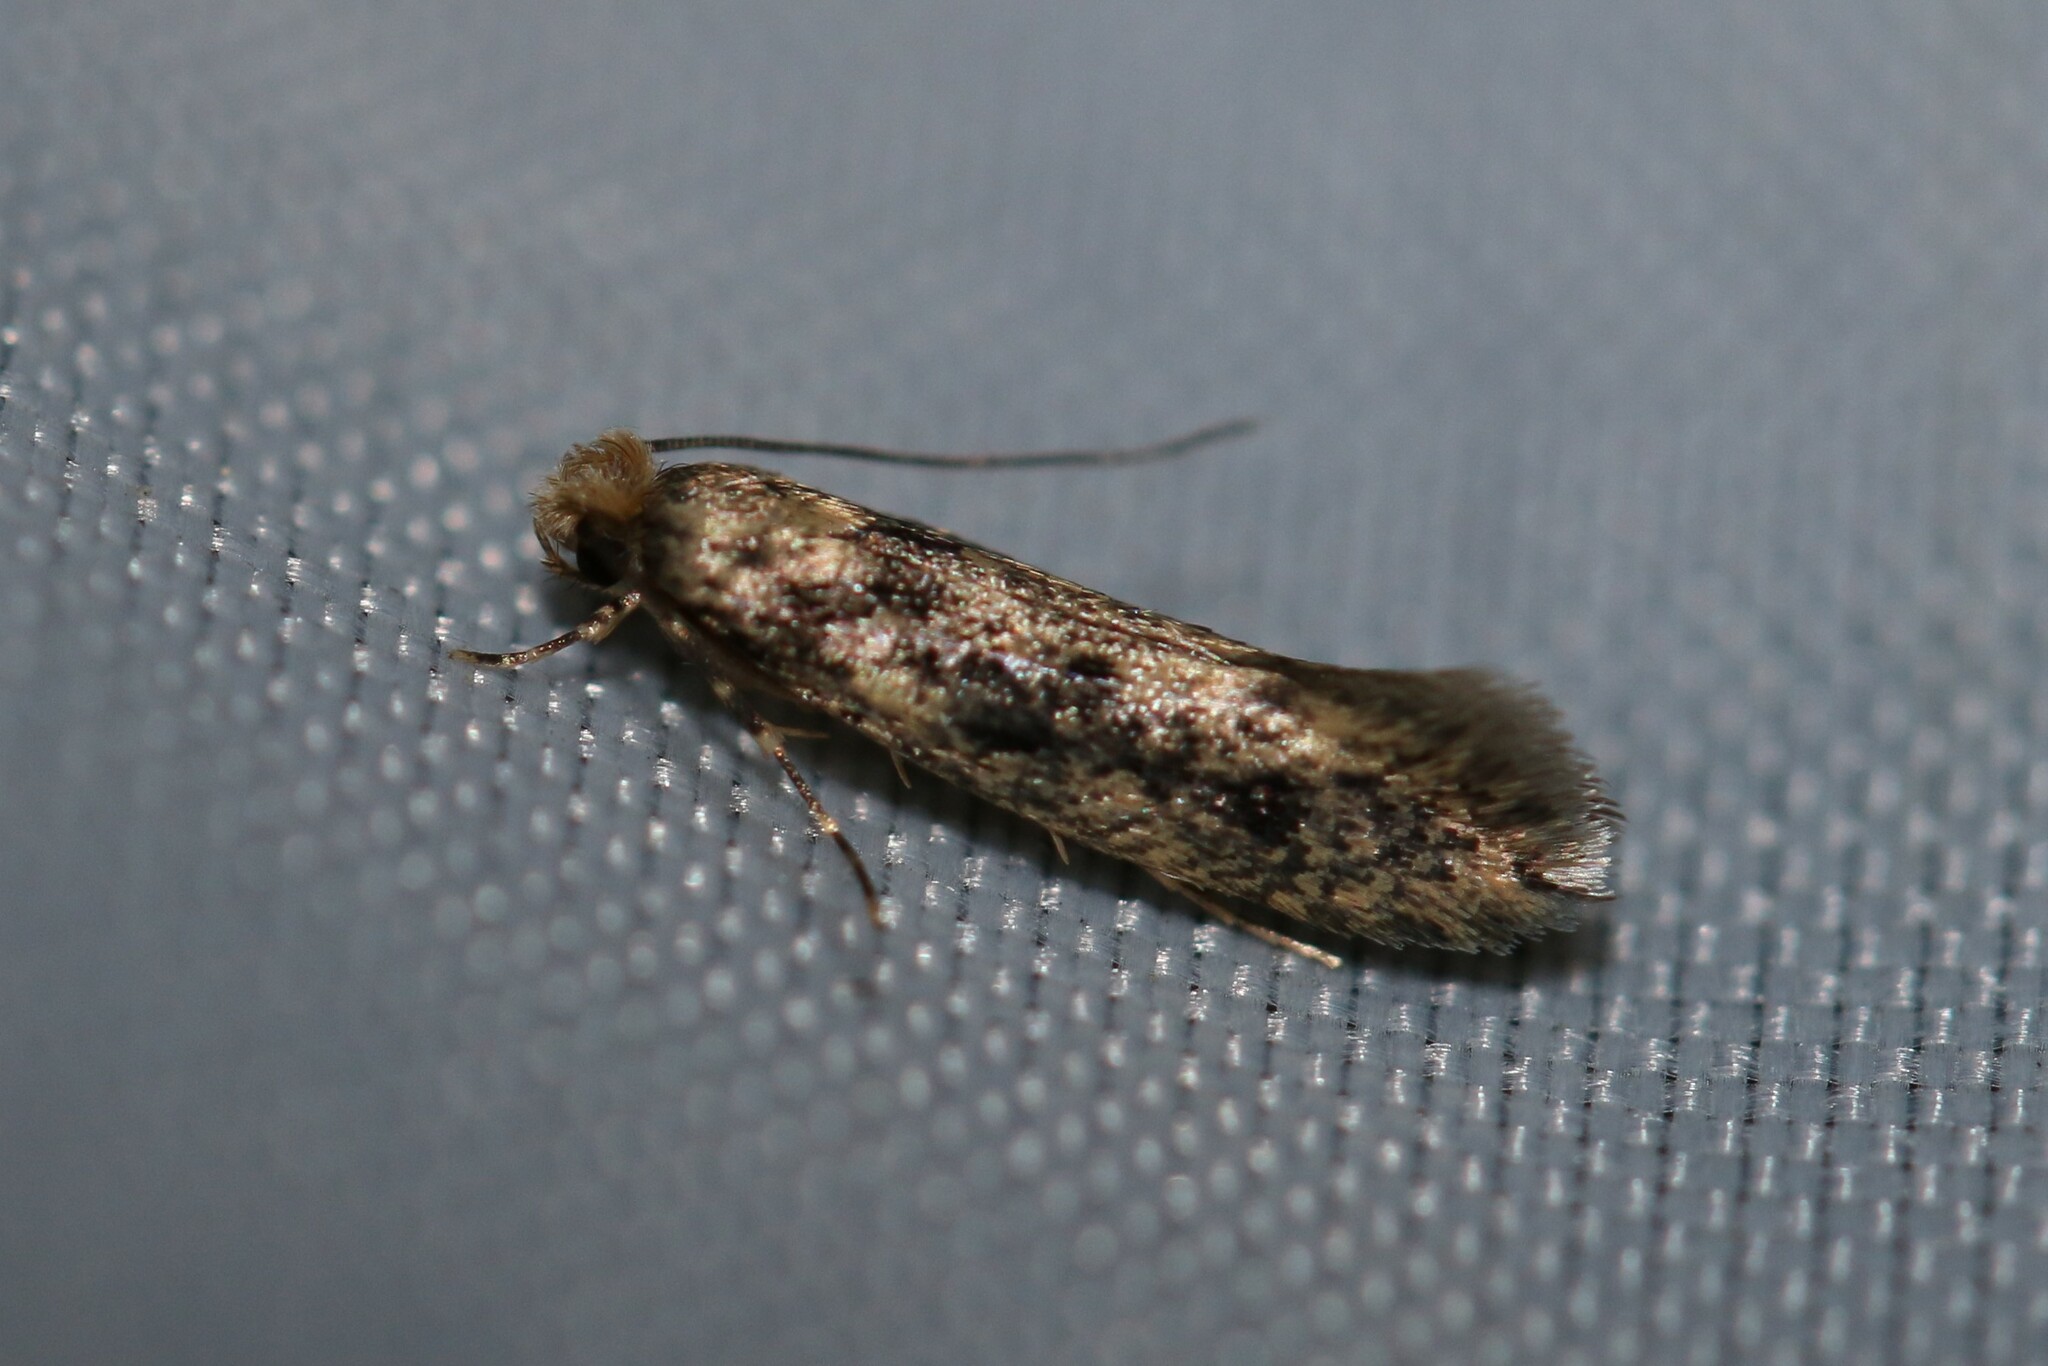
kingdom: Animalia
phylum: Arthropoda
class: Insecta
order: Lepidoptera
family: Tineidae
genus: Niditinea
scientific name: Niditinea fuscella
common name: Brown-dotted clothes moth
